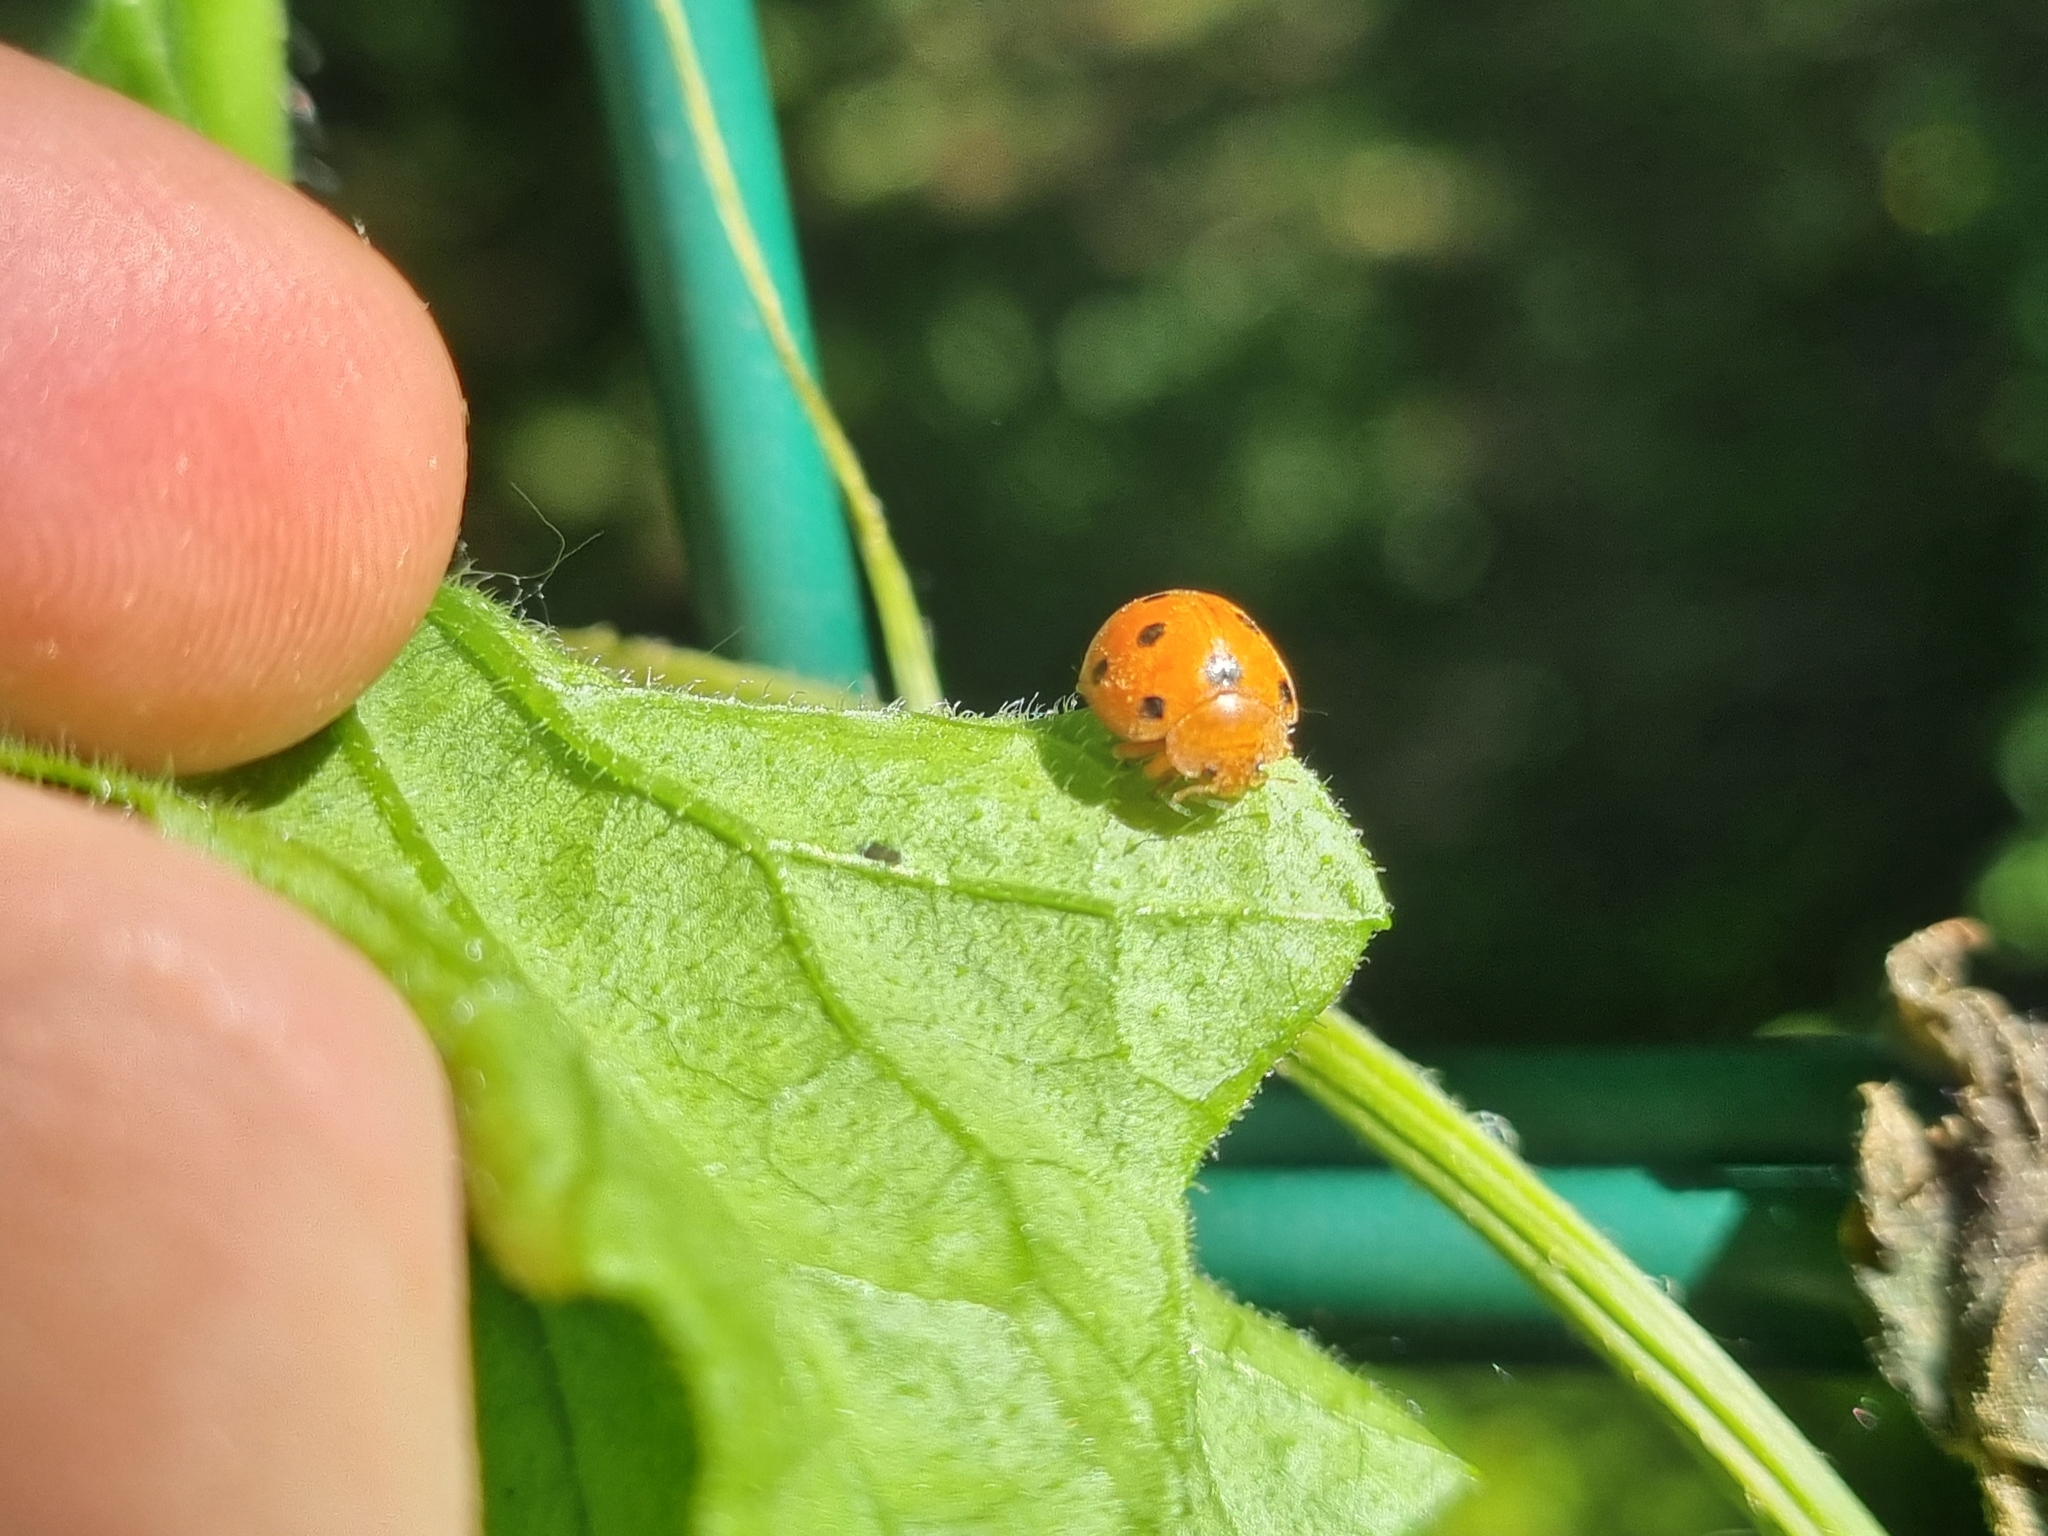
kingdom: Animalia
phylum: Arthropoda
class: Insecta
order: Coleoptera
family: Coccinellidae
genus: Henosepilachna
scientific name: Henosepilachna argus
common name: Bryony ladybird
